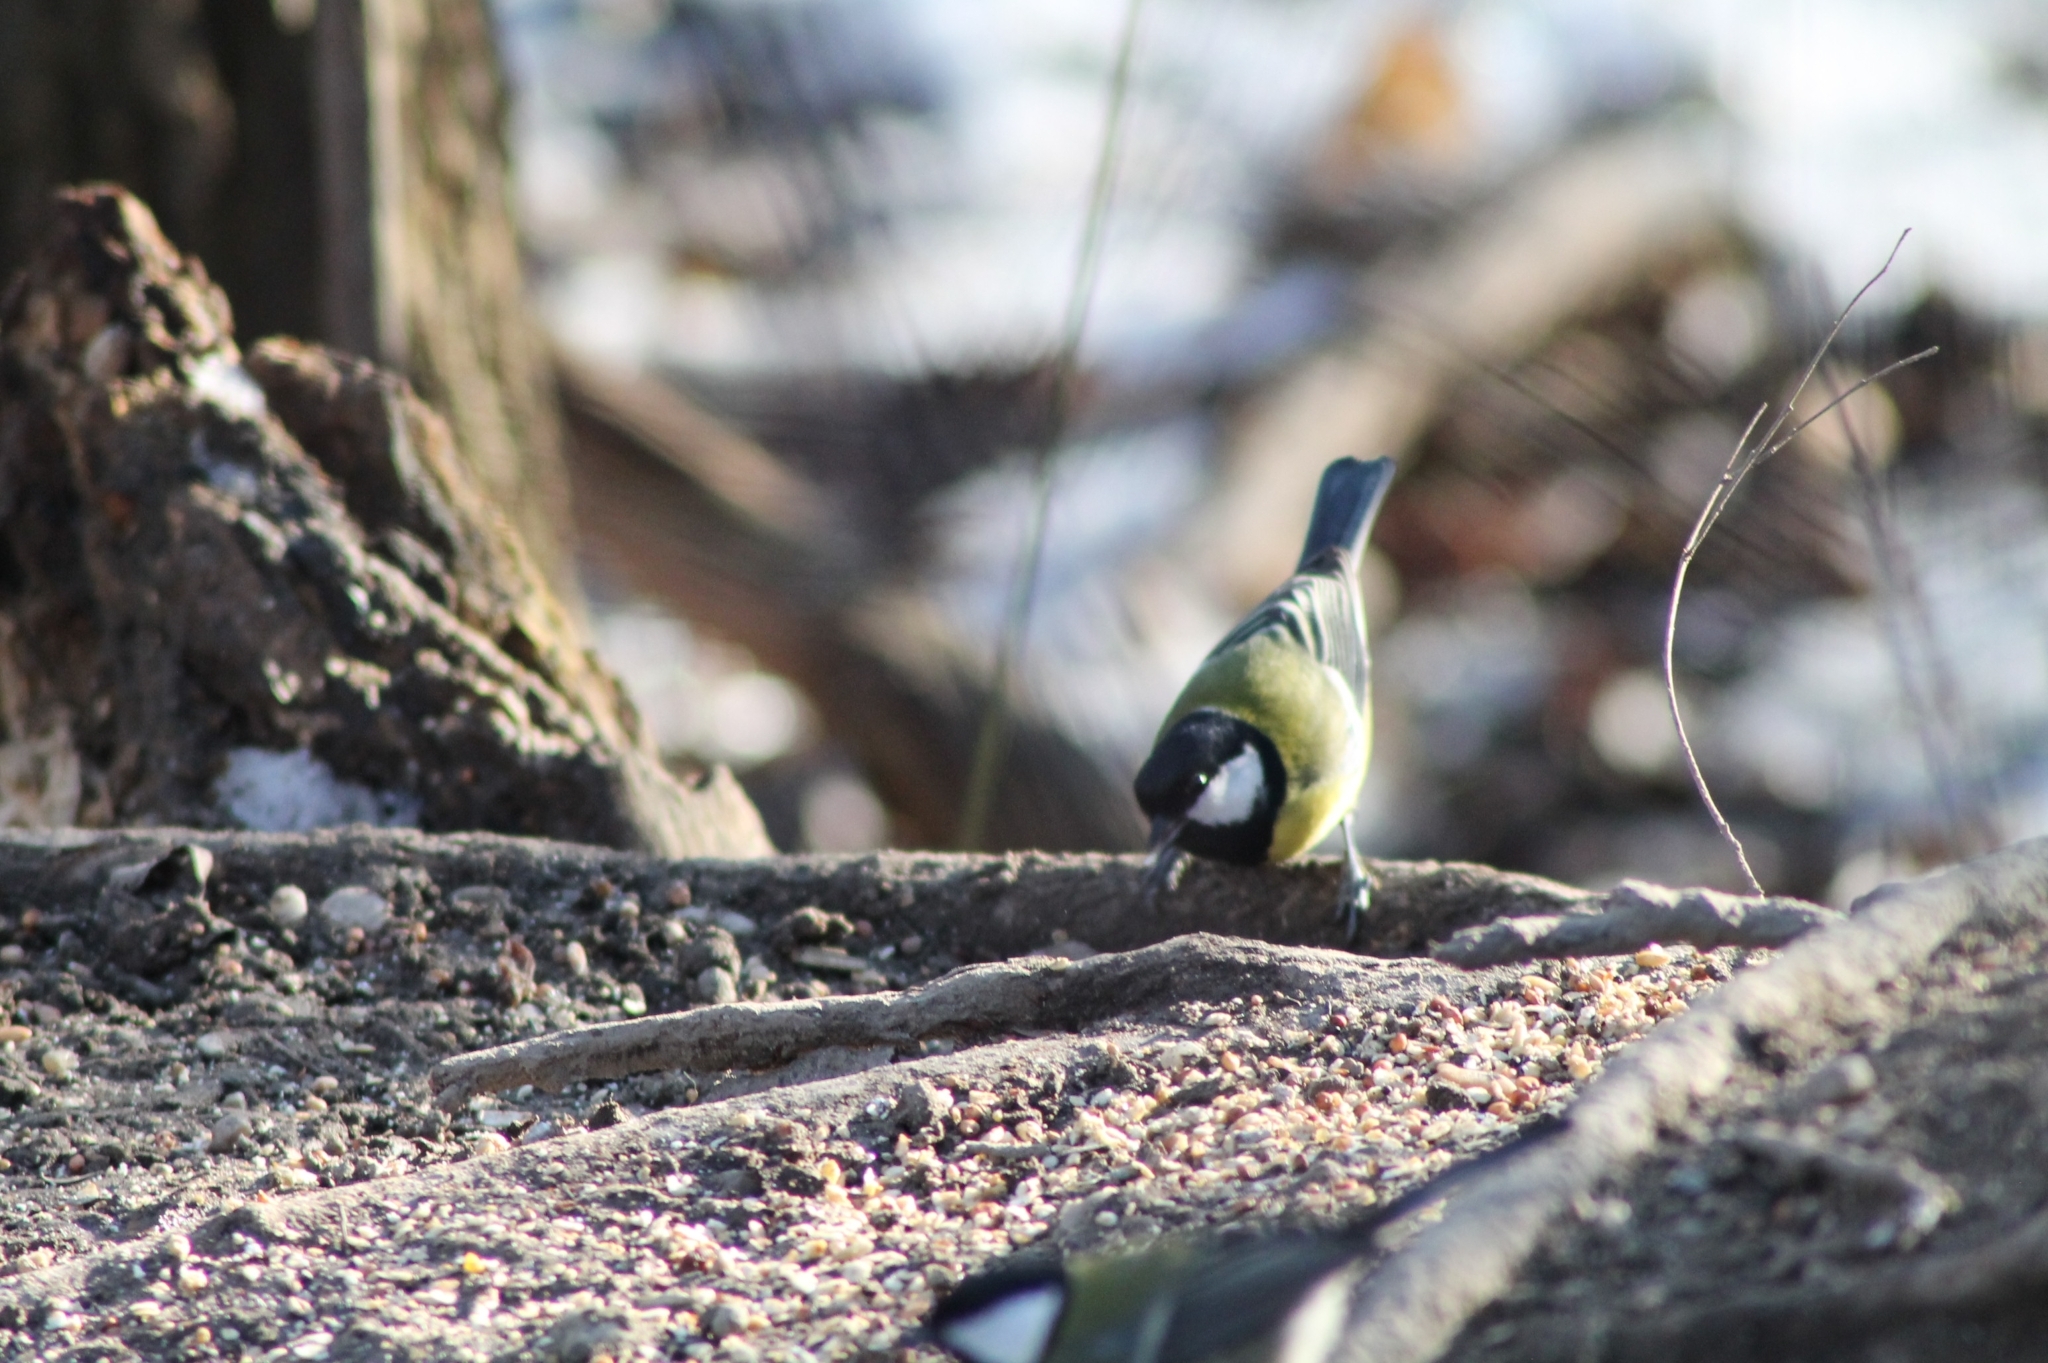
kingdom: Animalia
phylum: Chordata
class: Aves
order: Passeriformes
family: Paridae
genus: Parus
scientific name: Parus major
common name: Great tit
